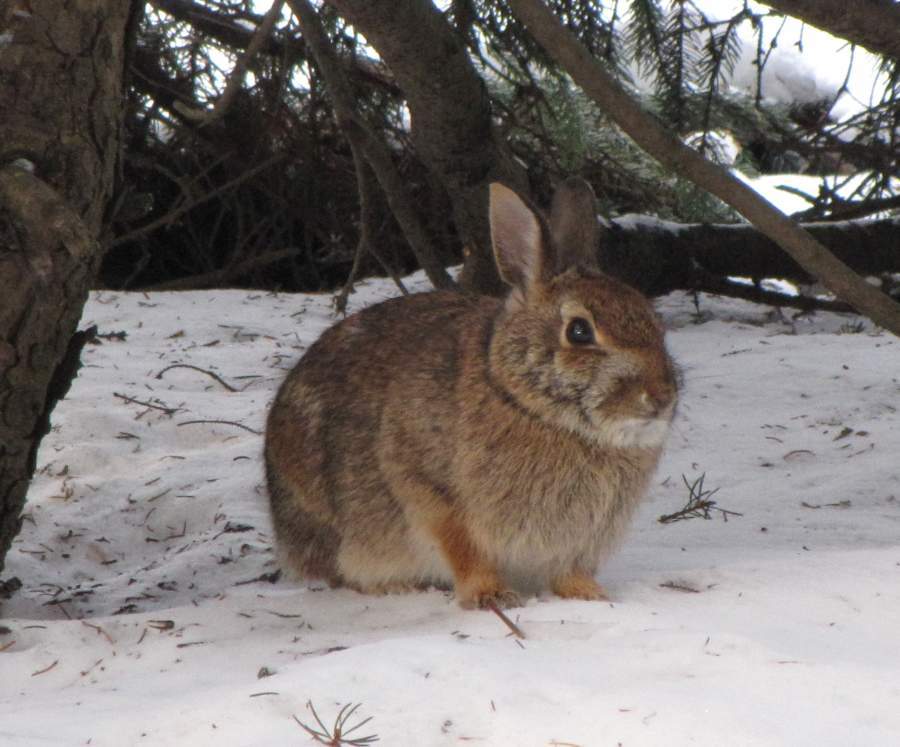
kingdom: Animalia
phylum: Chordata
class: Mammalia
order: Lagomorpha
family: Leporidae
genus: Sylvilagus
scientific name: Sylvilagus floridanus
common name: Eastern cottontail
